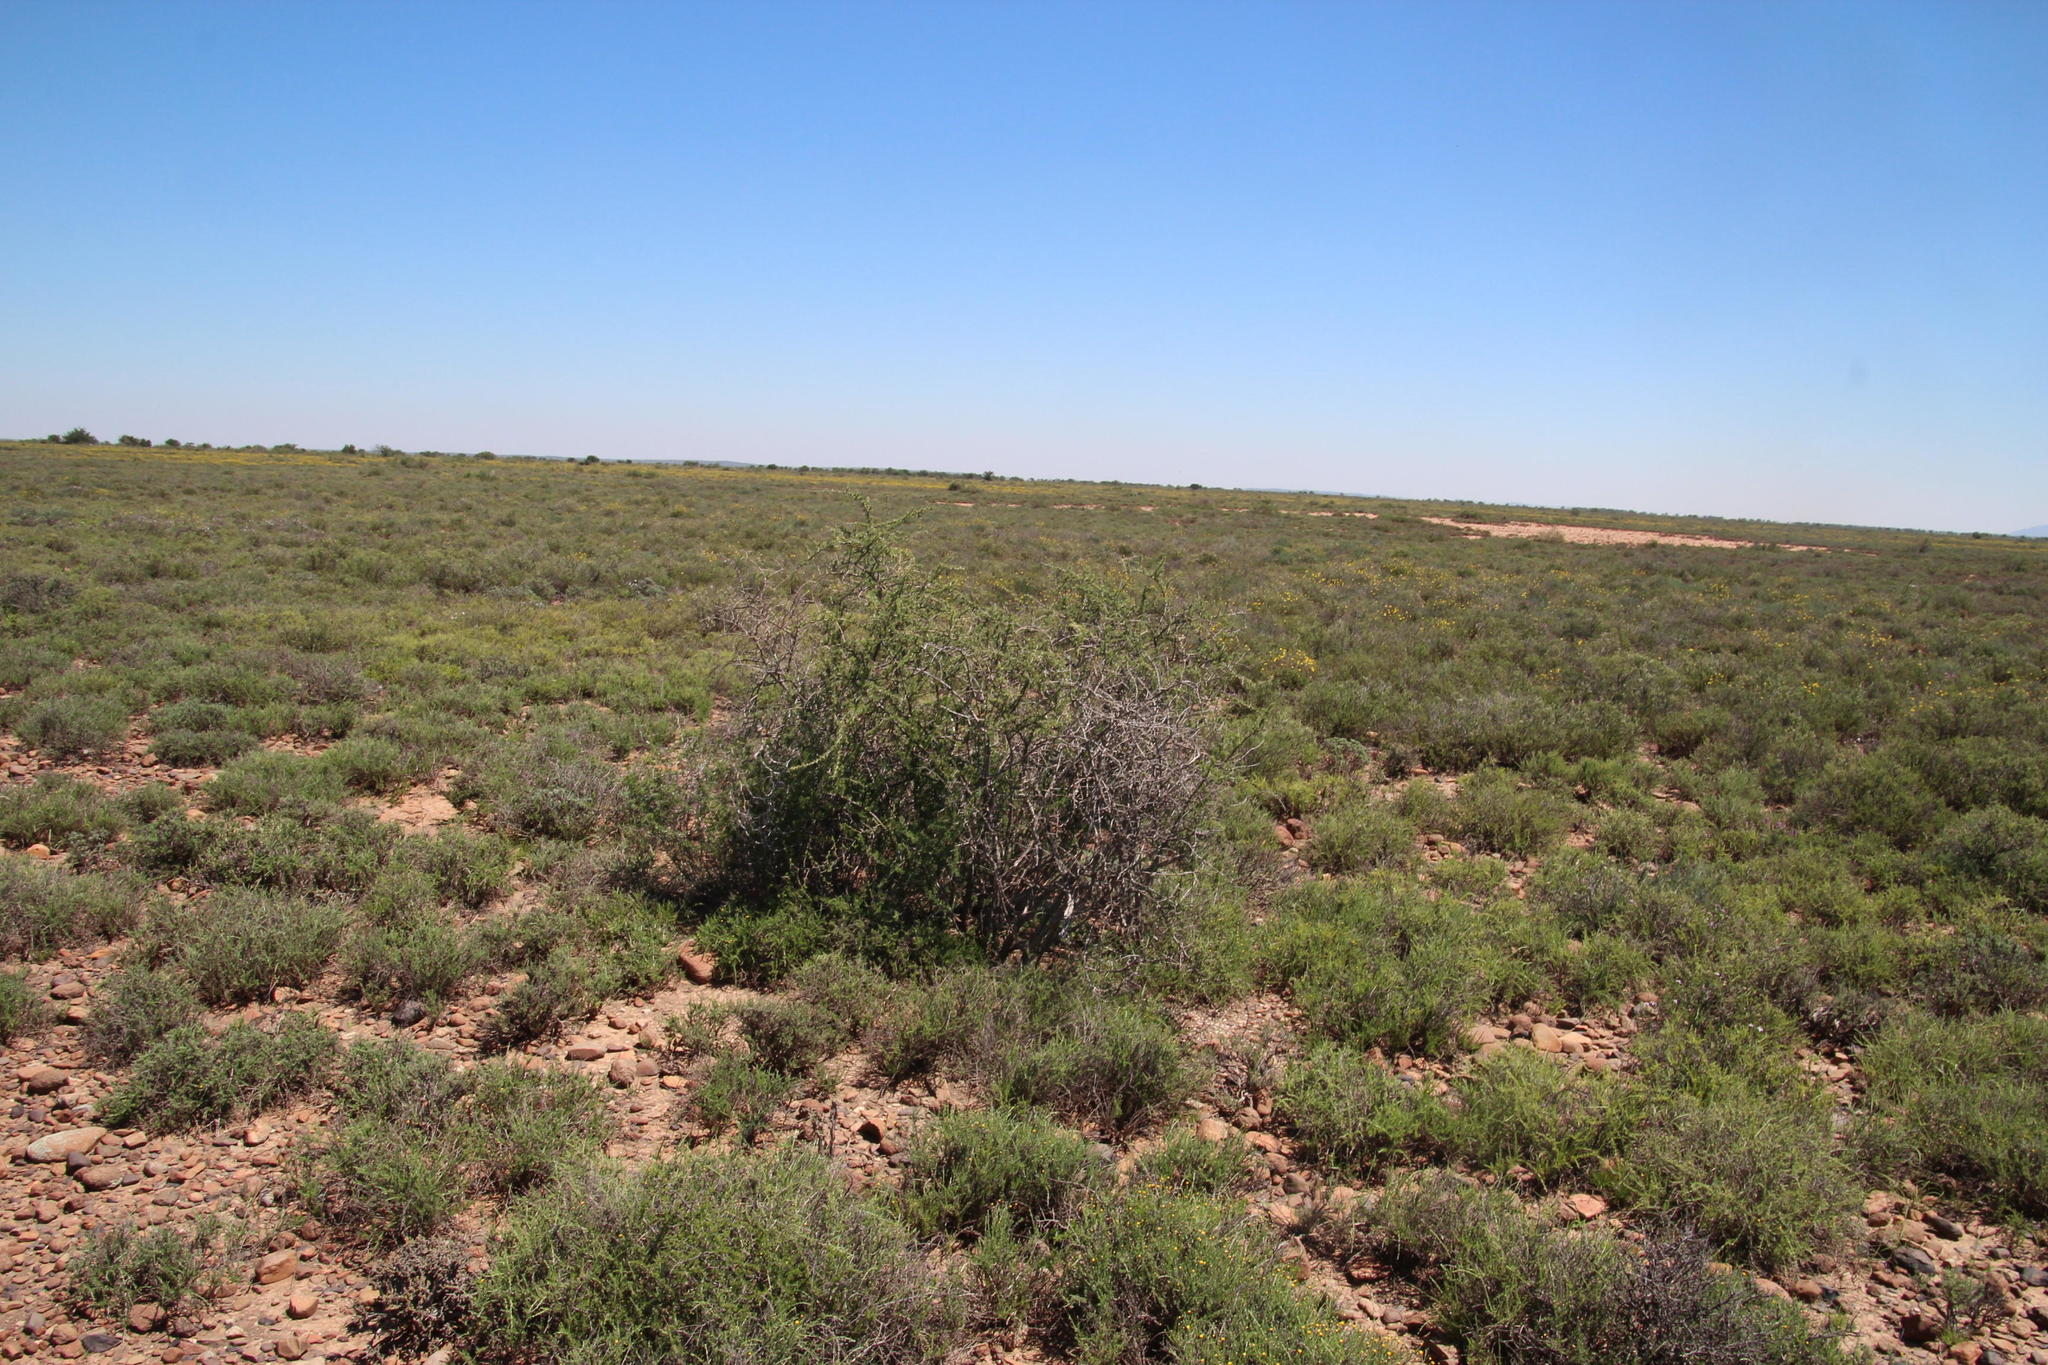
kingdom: Plantae
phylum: Tracheophyta
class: Magnoliopsida
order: Solanales
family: Solanaceae
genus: Lycium
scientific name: Lycium horridum
